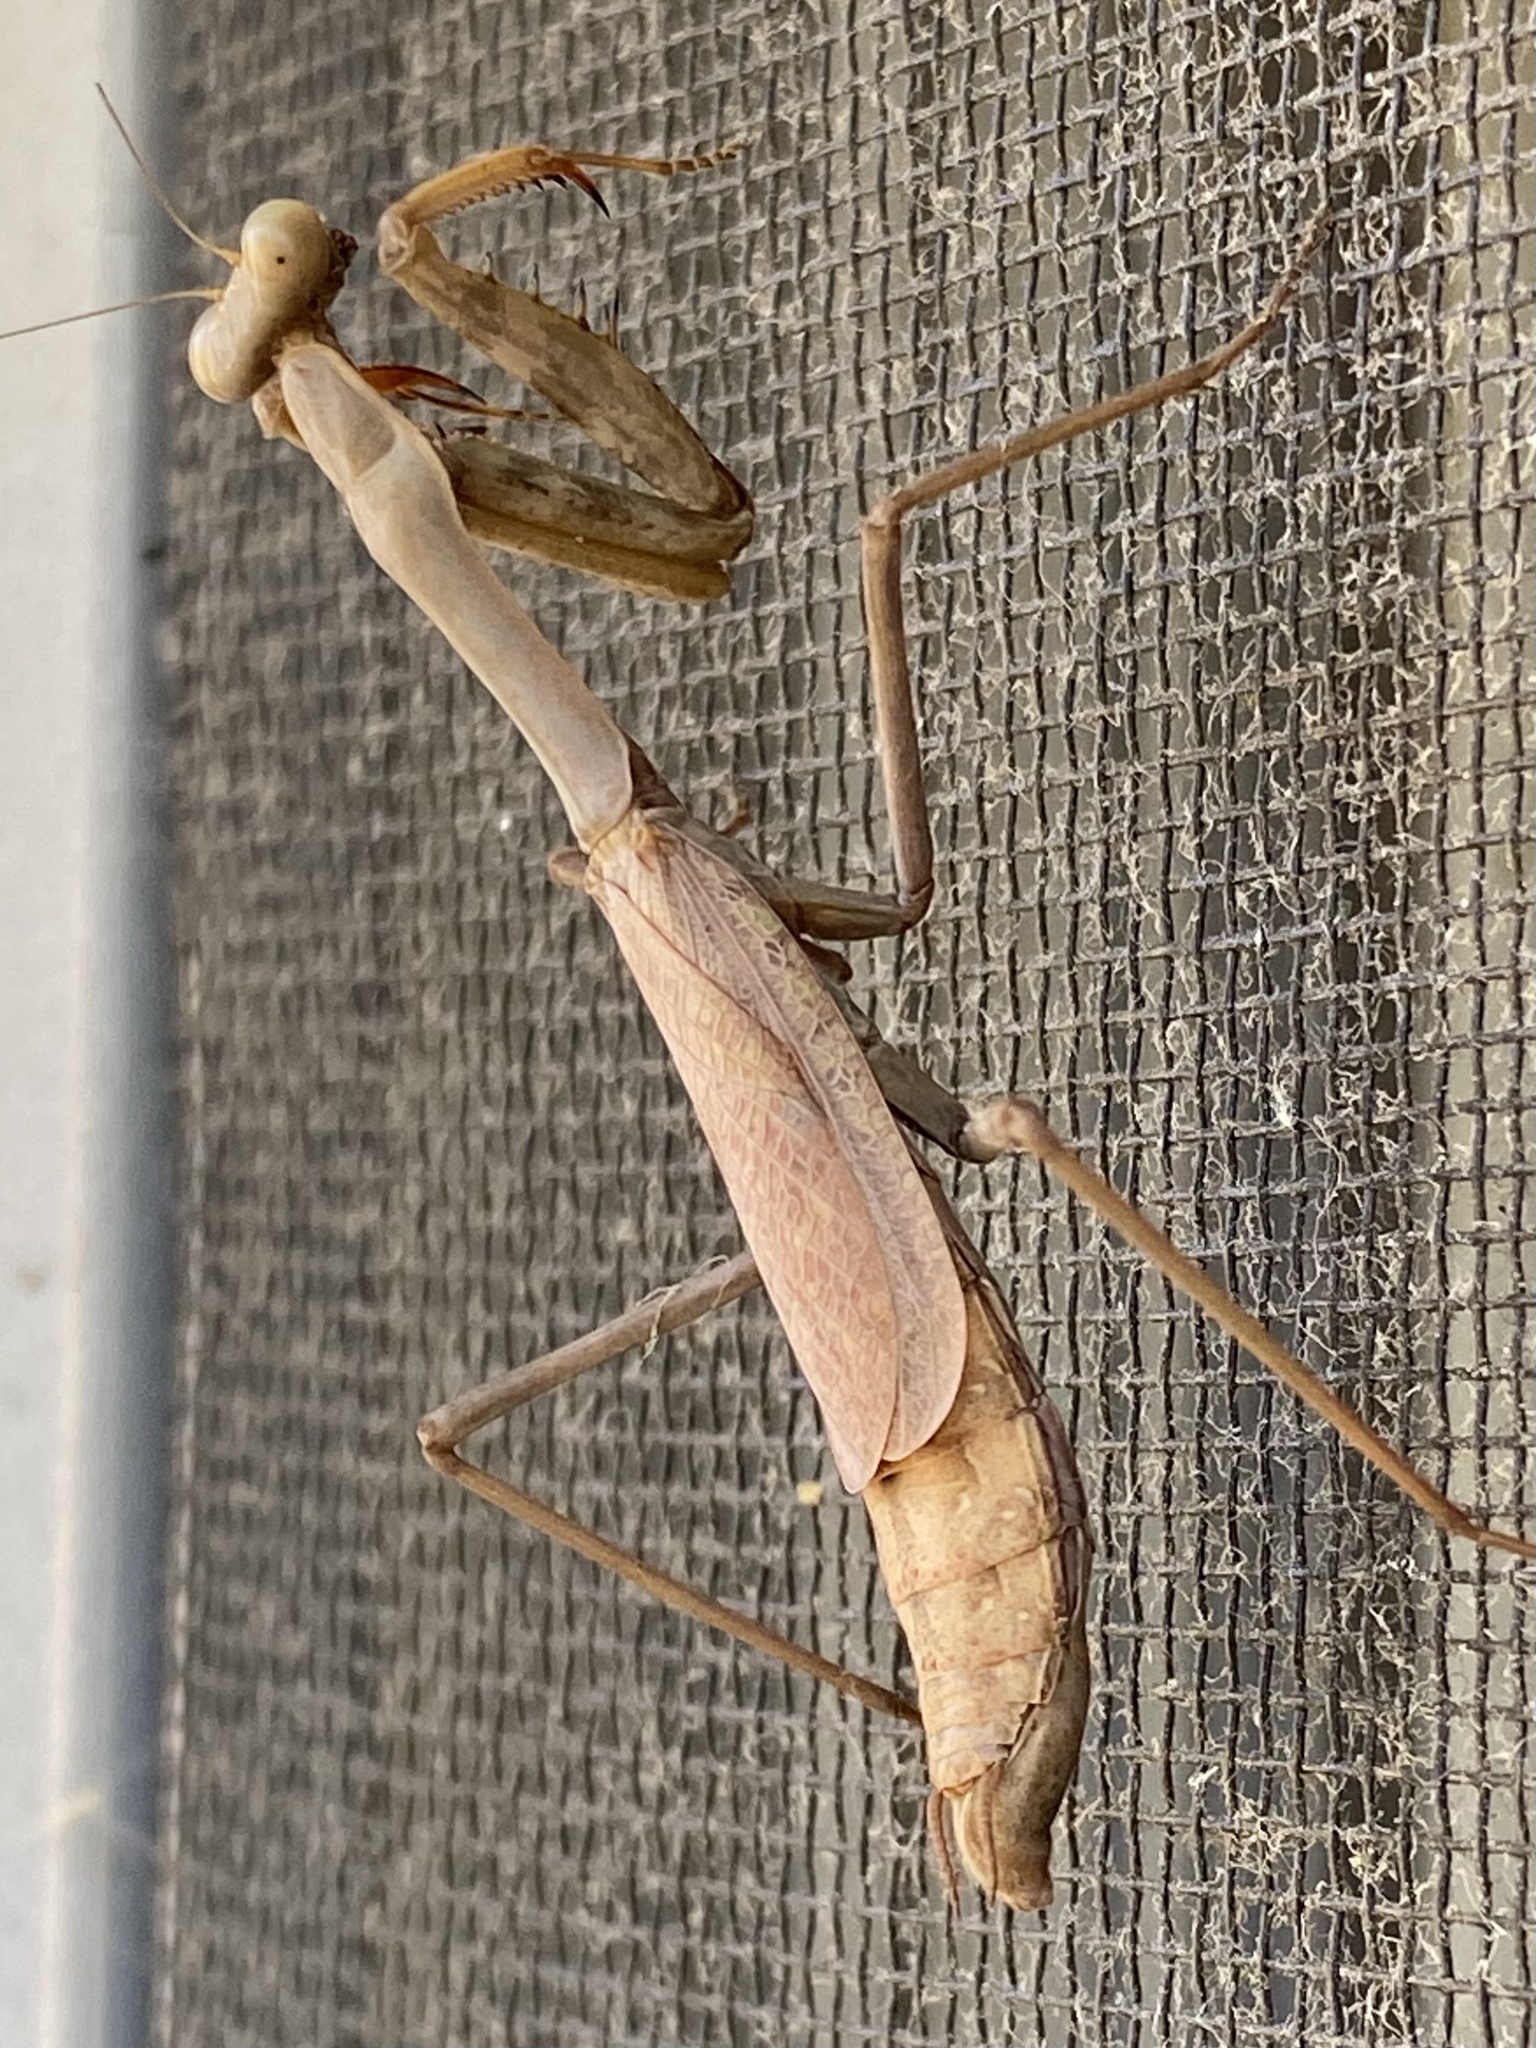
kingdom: Animalia
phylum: Arthropoda
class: Insecta
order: Mantodea
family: Mantidae
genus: Stagmomantis
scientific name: Stagmomantis californica
